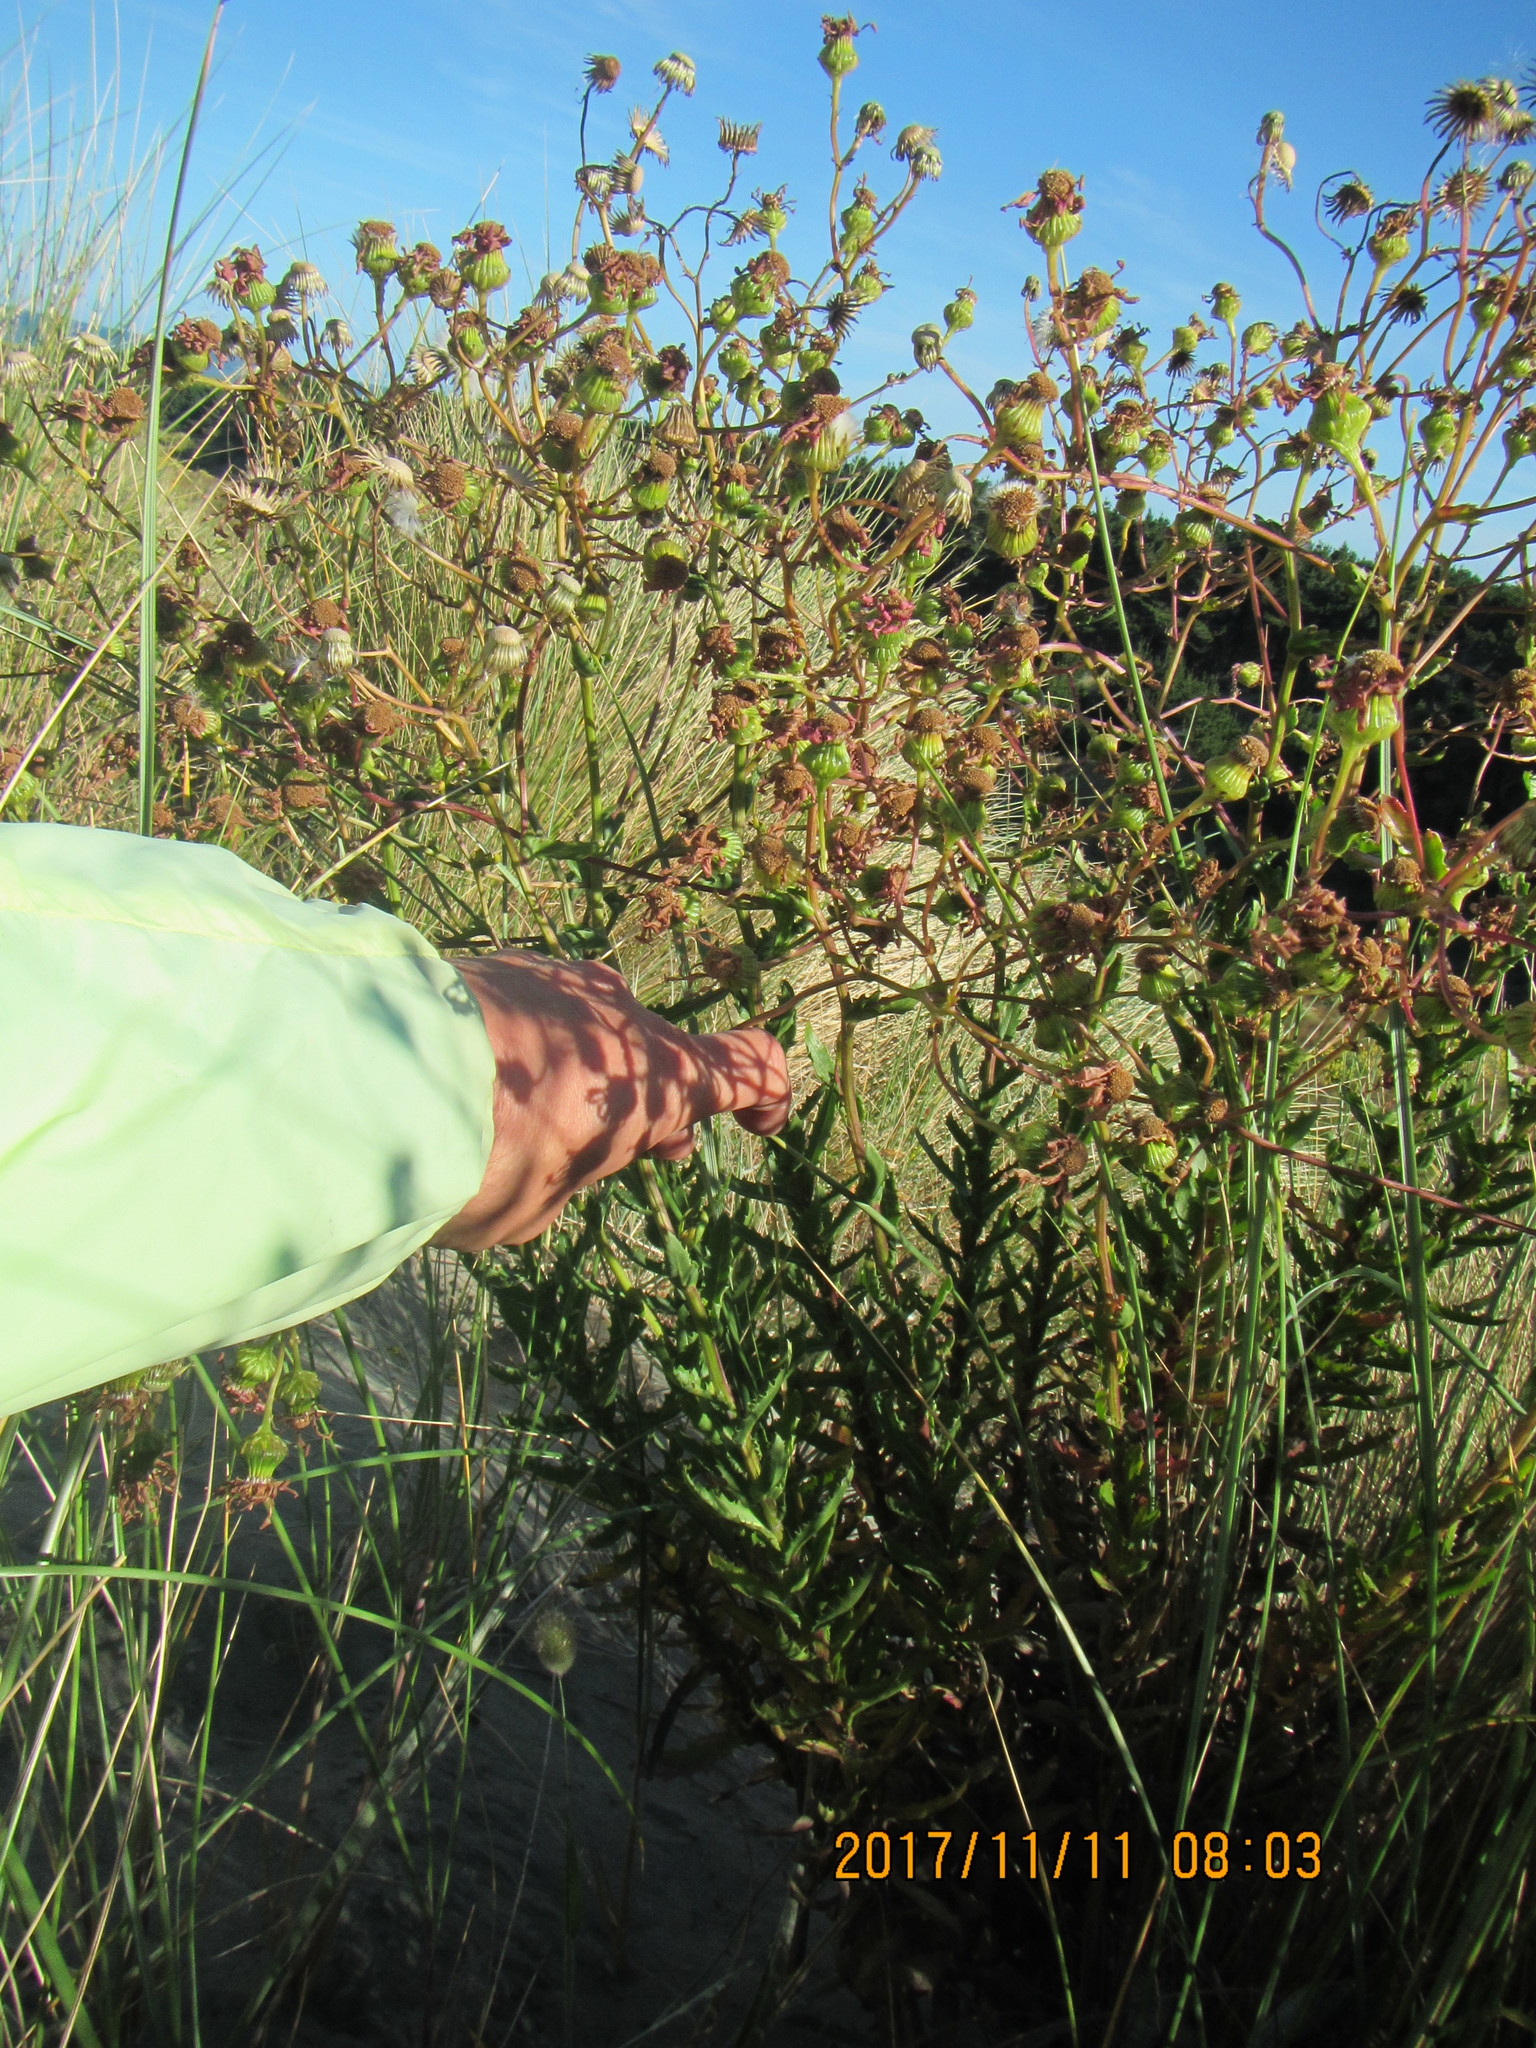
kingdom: Plantae
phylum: Tracheophyta
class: Magnoliopsida
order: Asterales
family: Asteraceae
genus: Senecio
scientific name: Senecio glastifolius
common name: Woad-leaved ragwort
